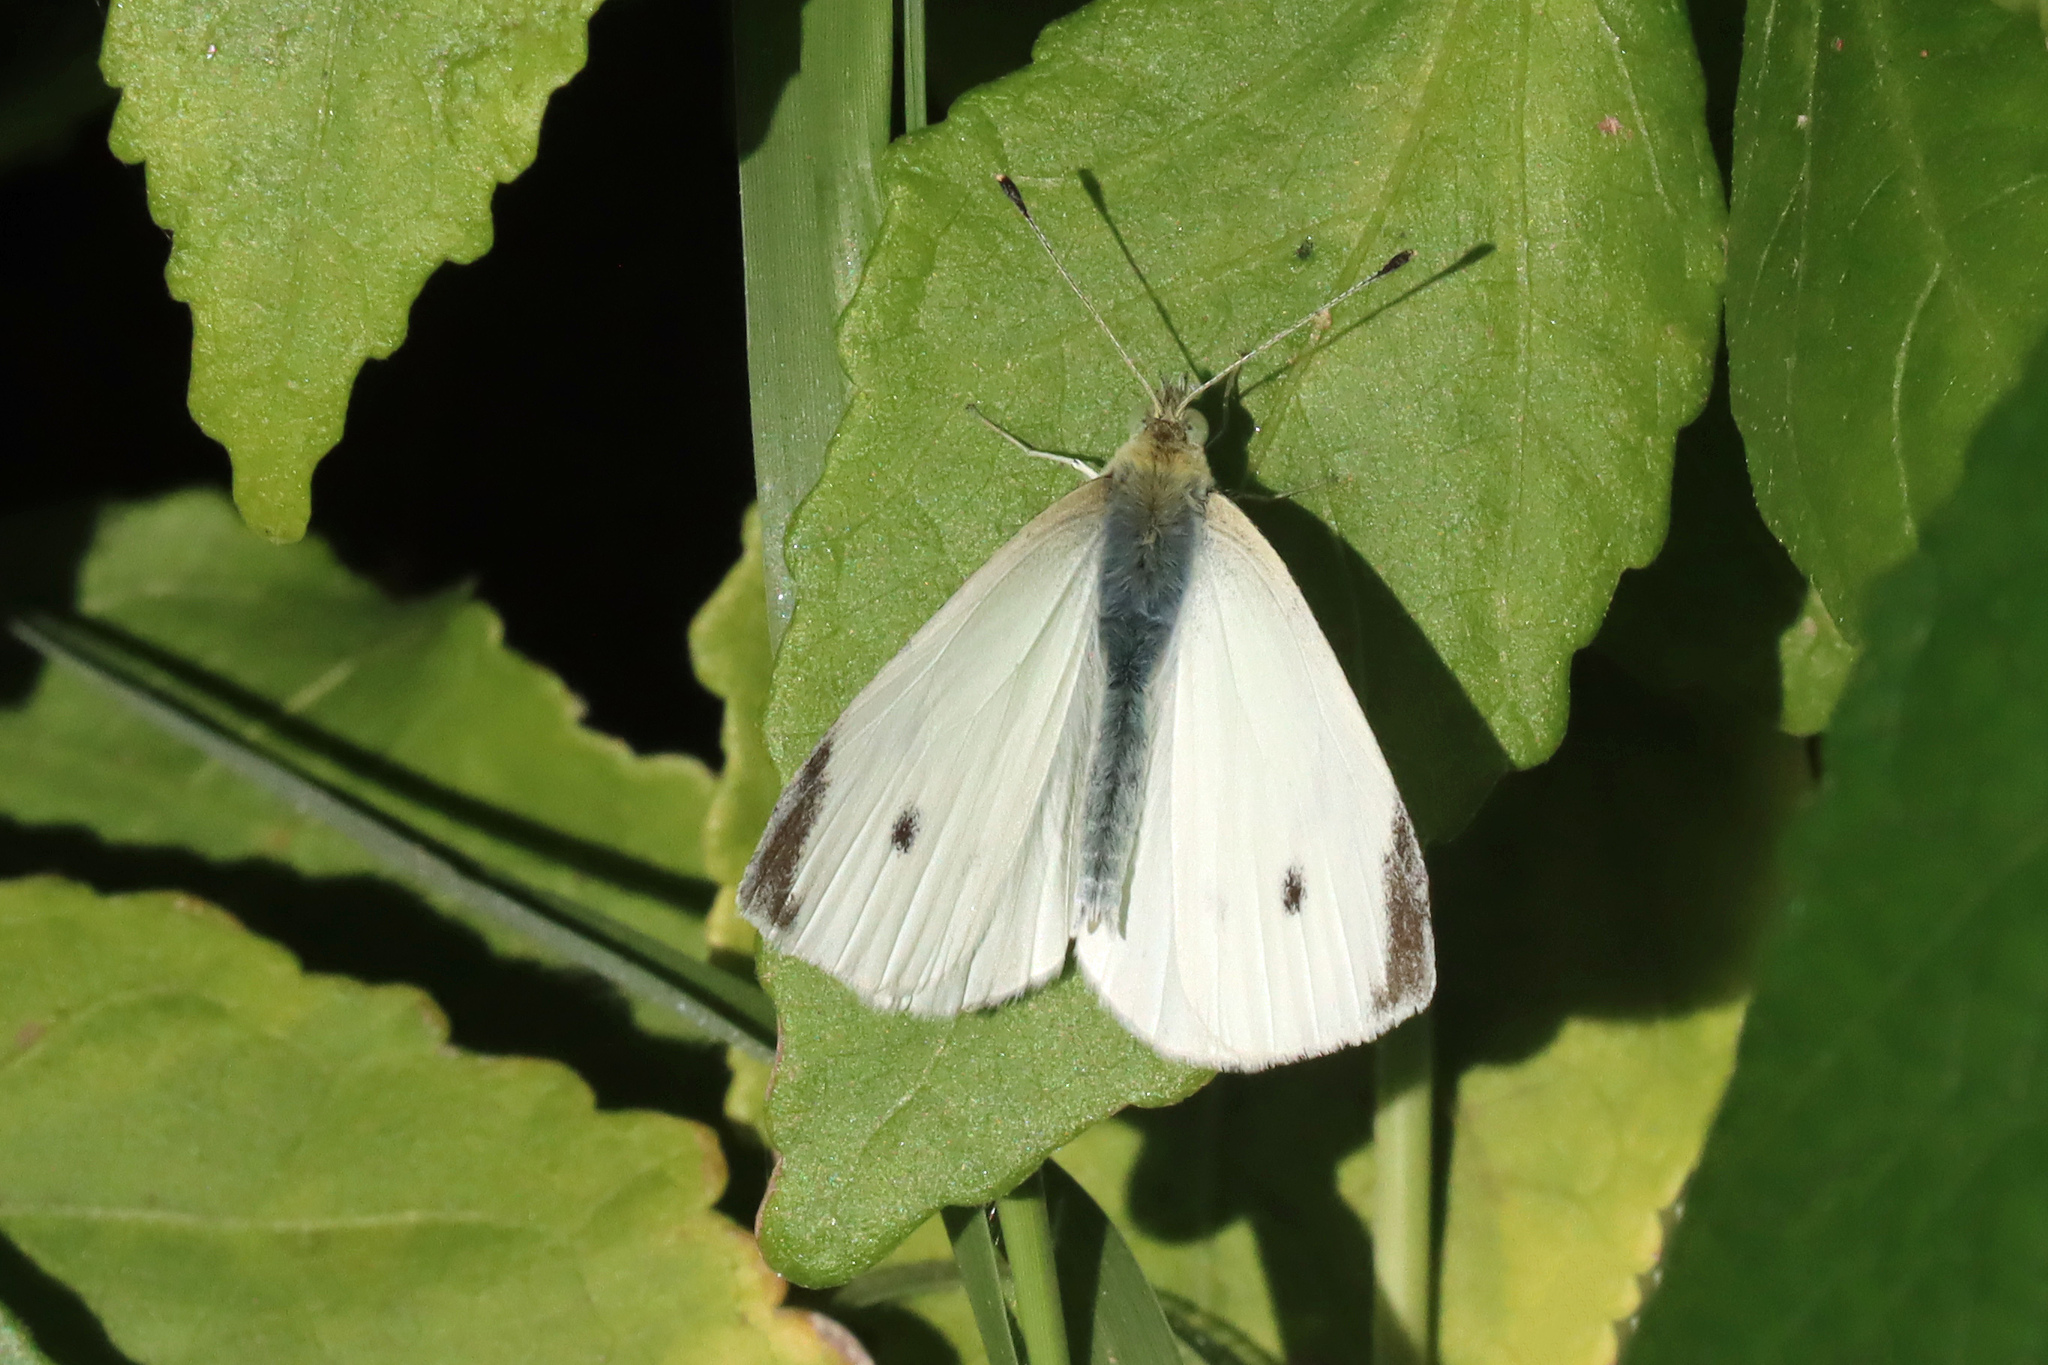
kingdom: Animalia
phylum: Arthropoda
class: Insecta
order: Lepidoptera
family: Pieridae
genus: Pieris
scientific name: Pieris rapae
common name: Small white
